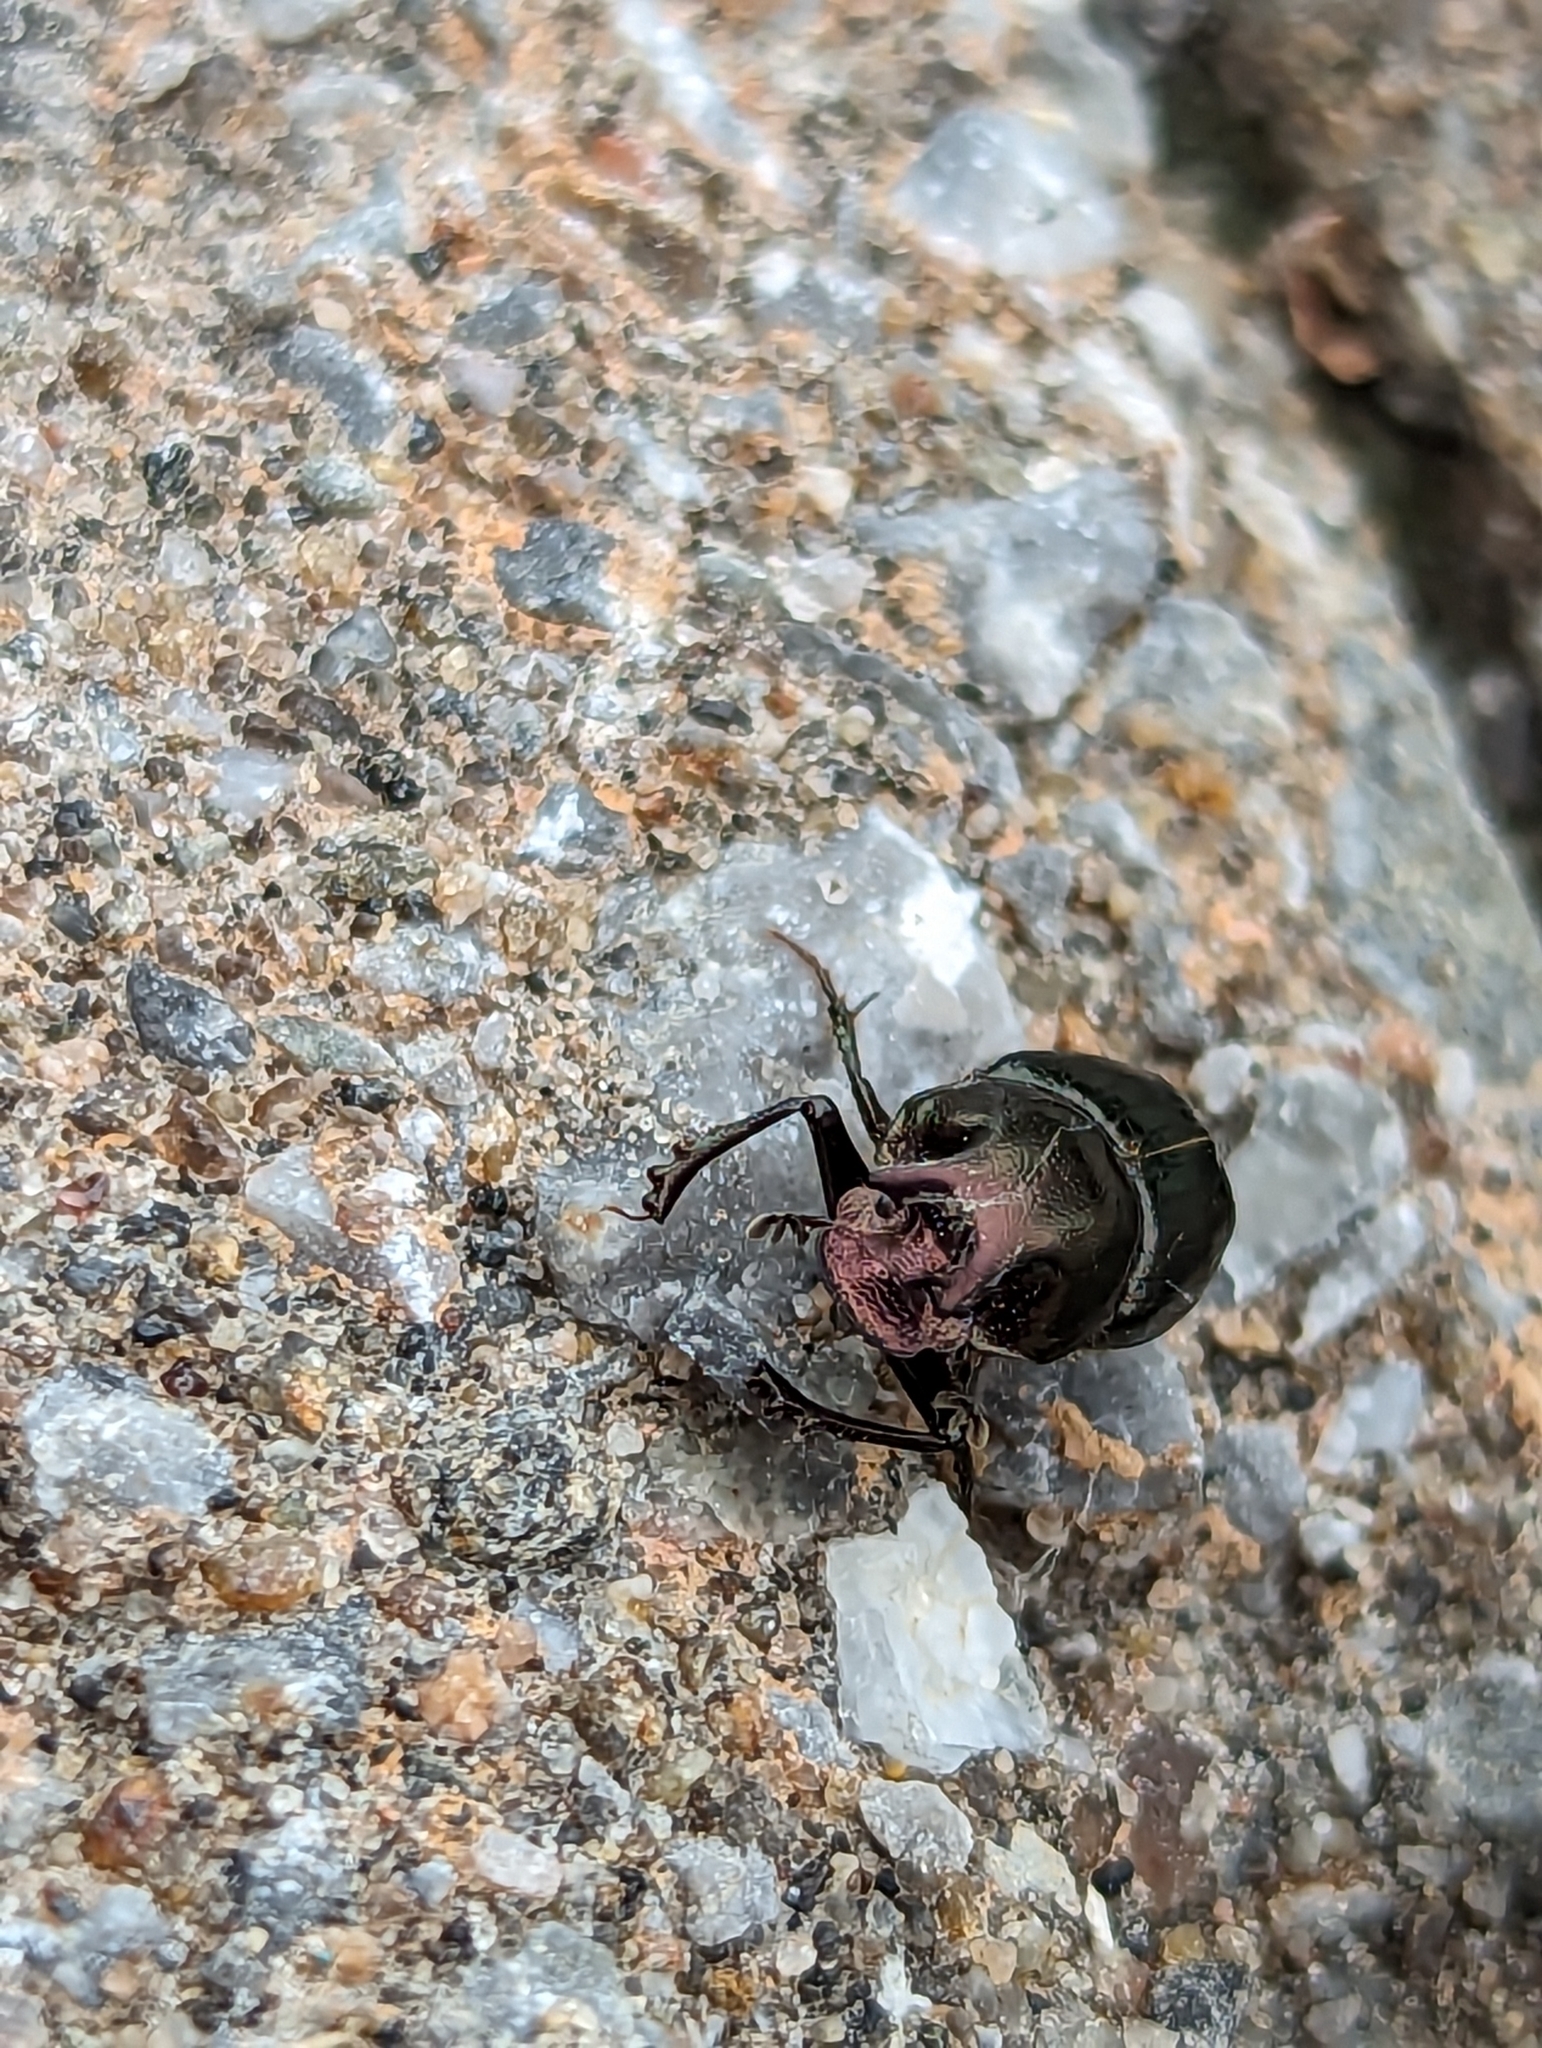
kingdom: Animalia
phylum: Arthropoda
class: Insecta
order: Coleoptera
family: Scarabaeidae
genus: Onthophagus
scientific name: Onthophagus orpheus
